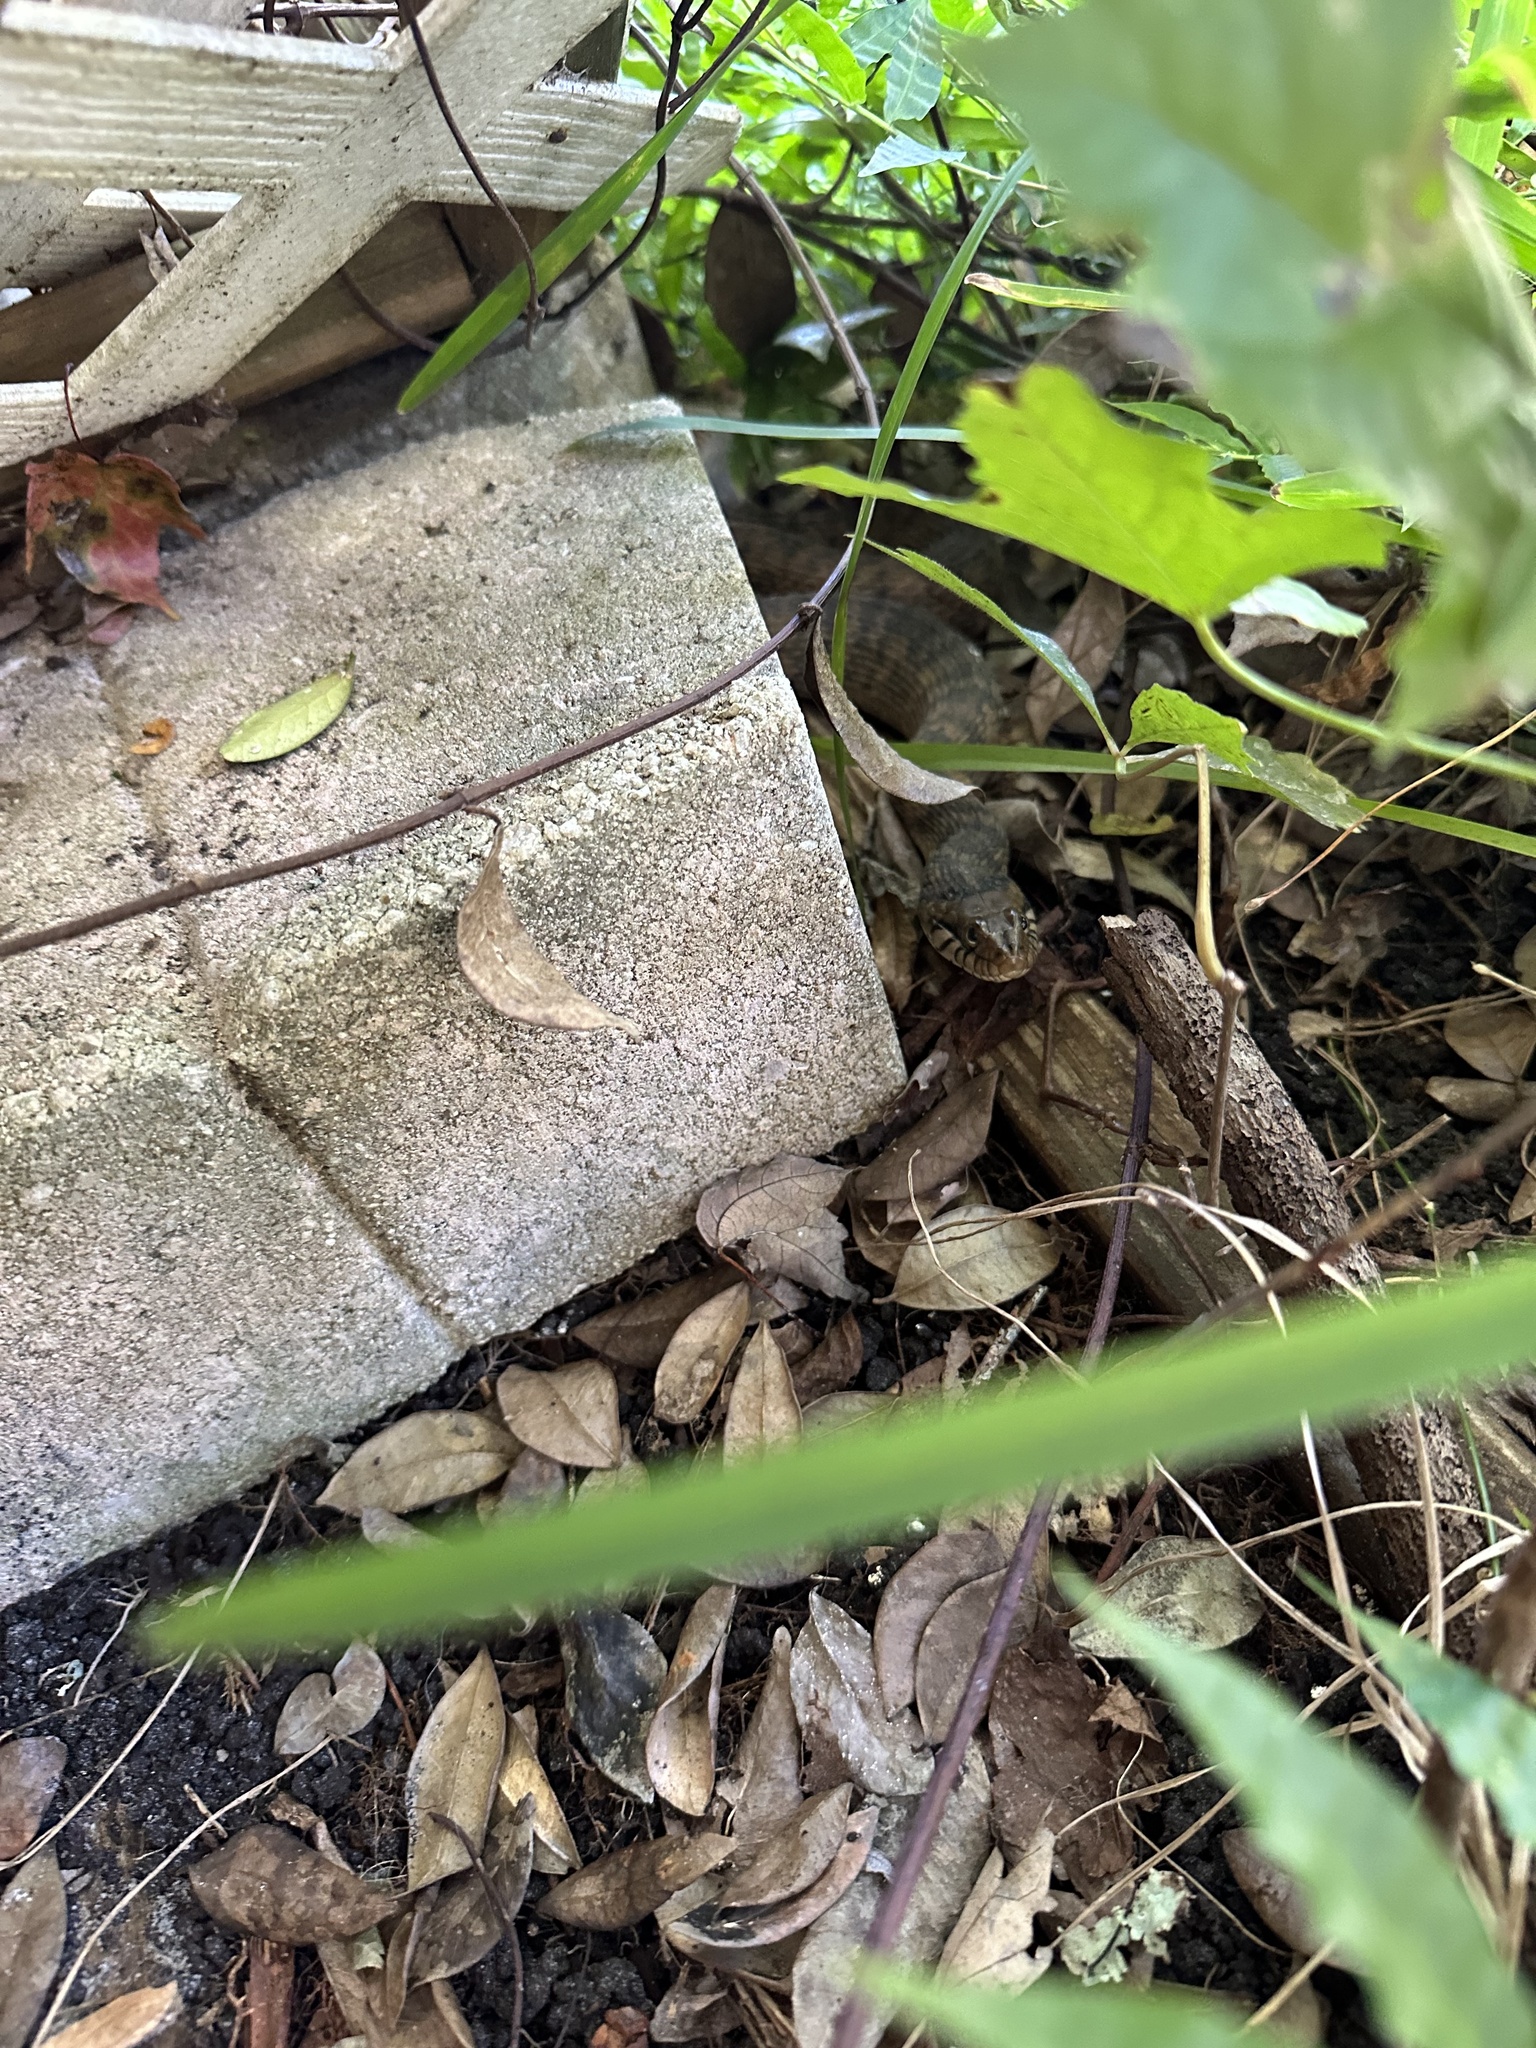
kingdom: Animalia
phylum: Chordata
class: Squamata
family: Colubridae
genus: Nerodia
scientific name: Nerodia fasciata
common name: Southern water snake
